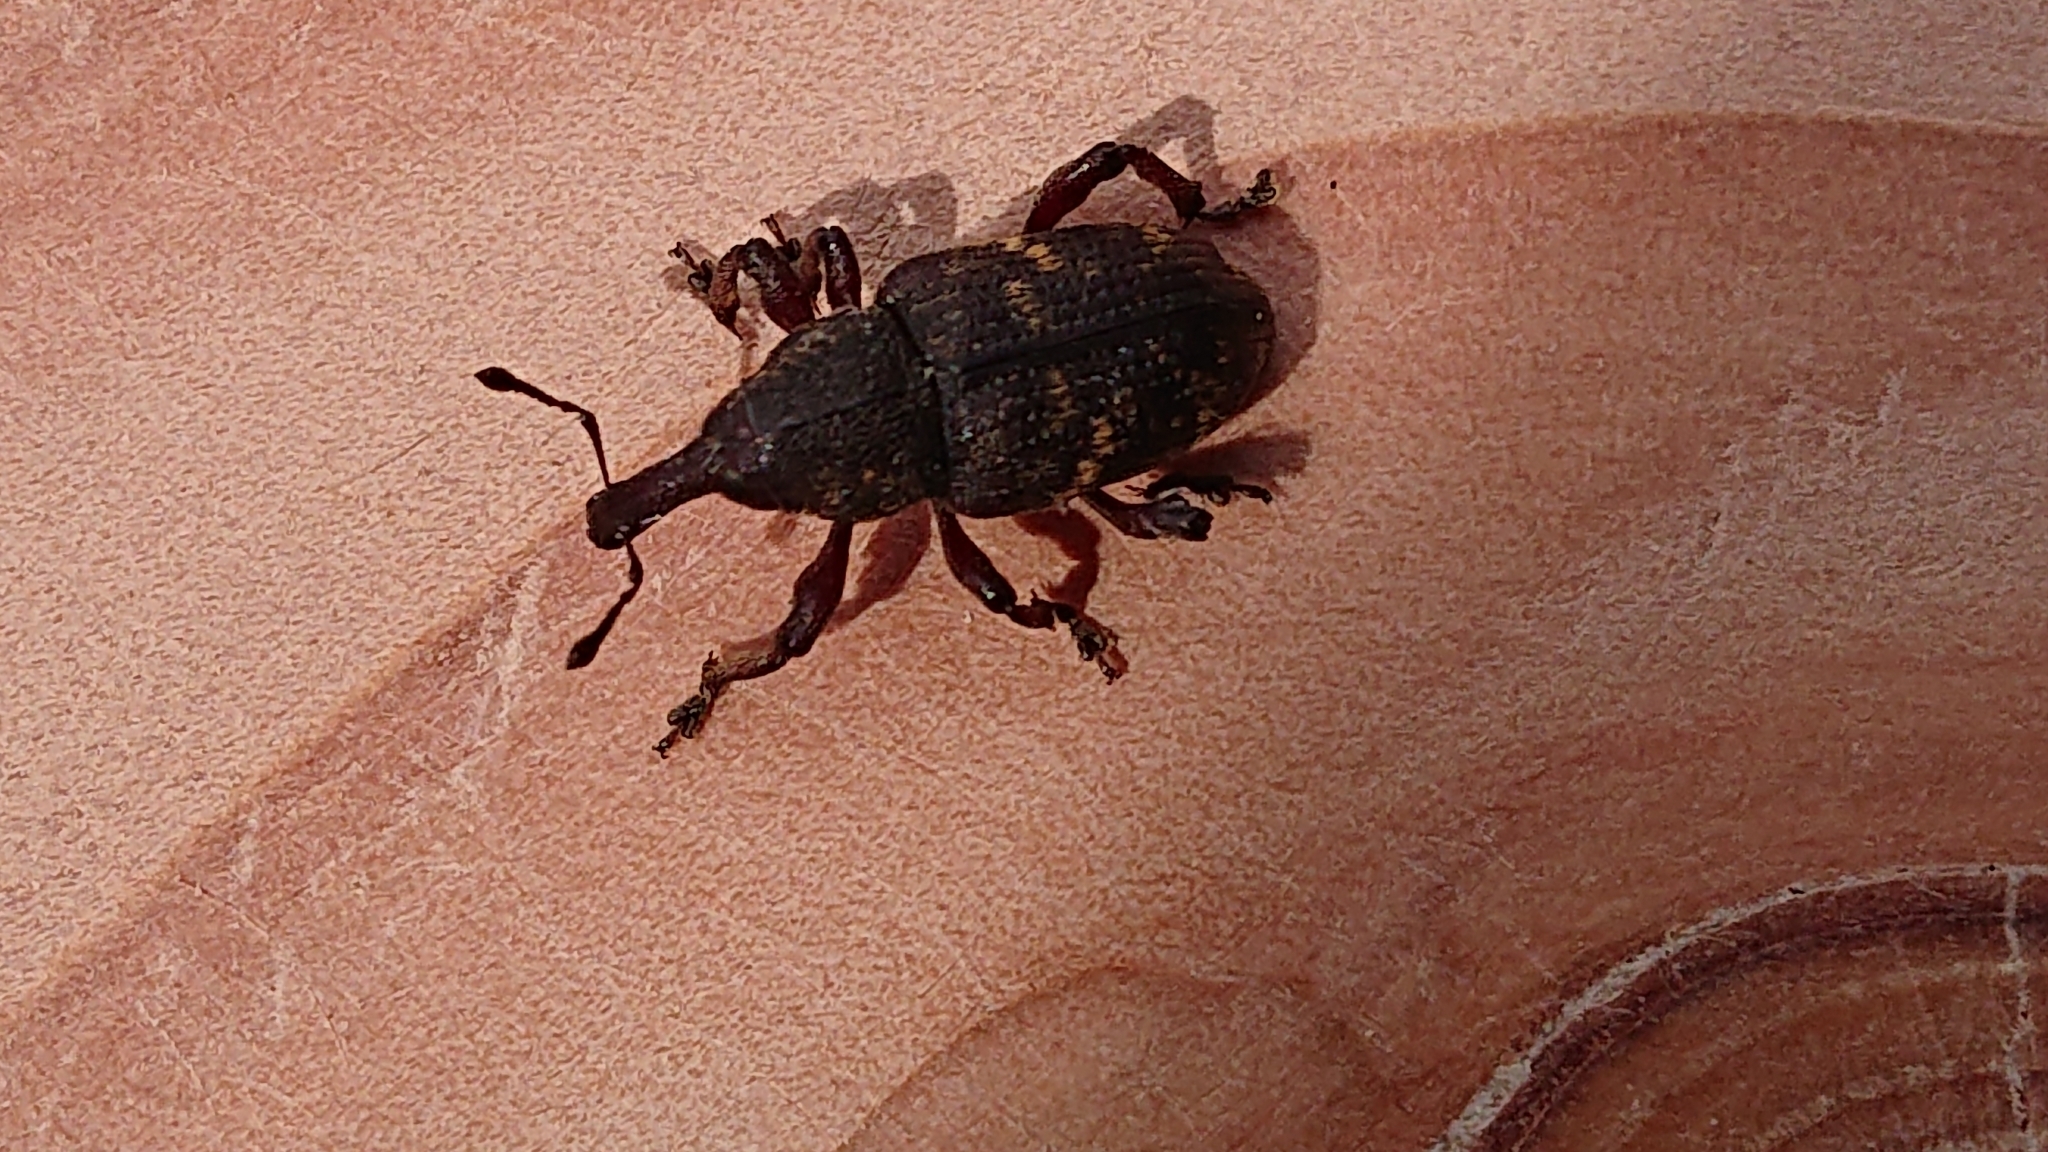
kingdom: Animalia
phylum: Arthropoda
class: Insecta
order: Coleoptera
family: Curculionidae
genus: Hylobius
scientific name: Hylobius abietis
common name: Large pine weevil
